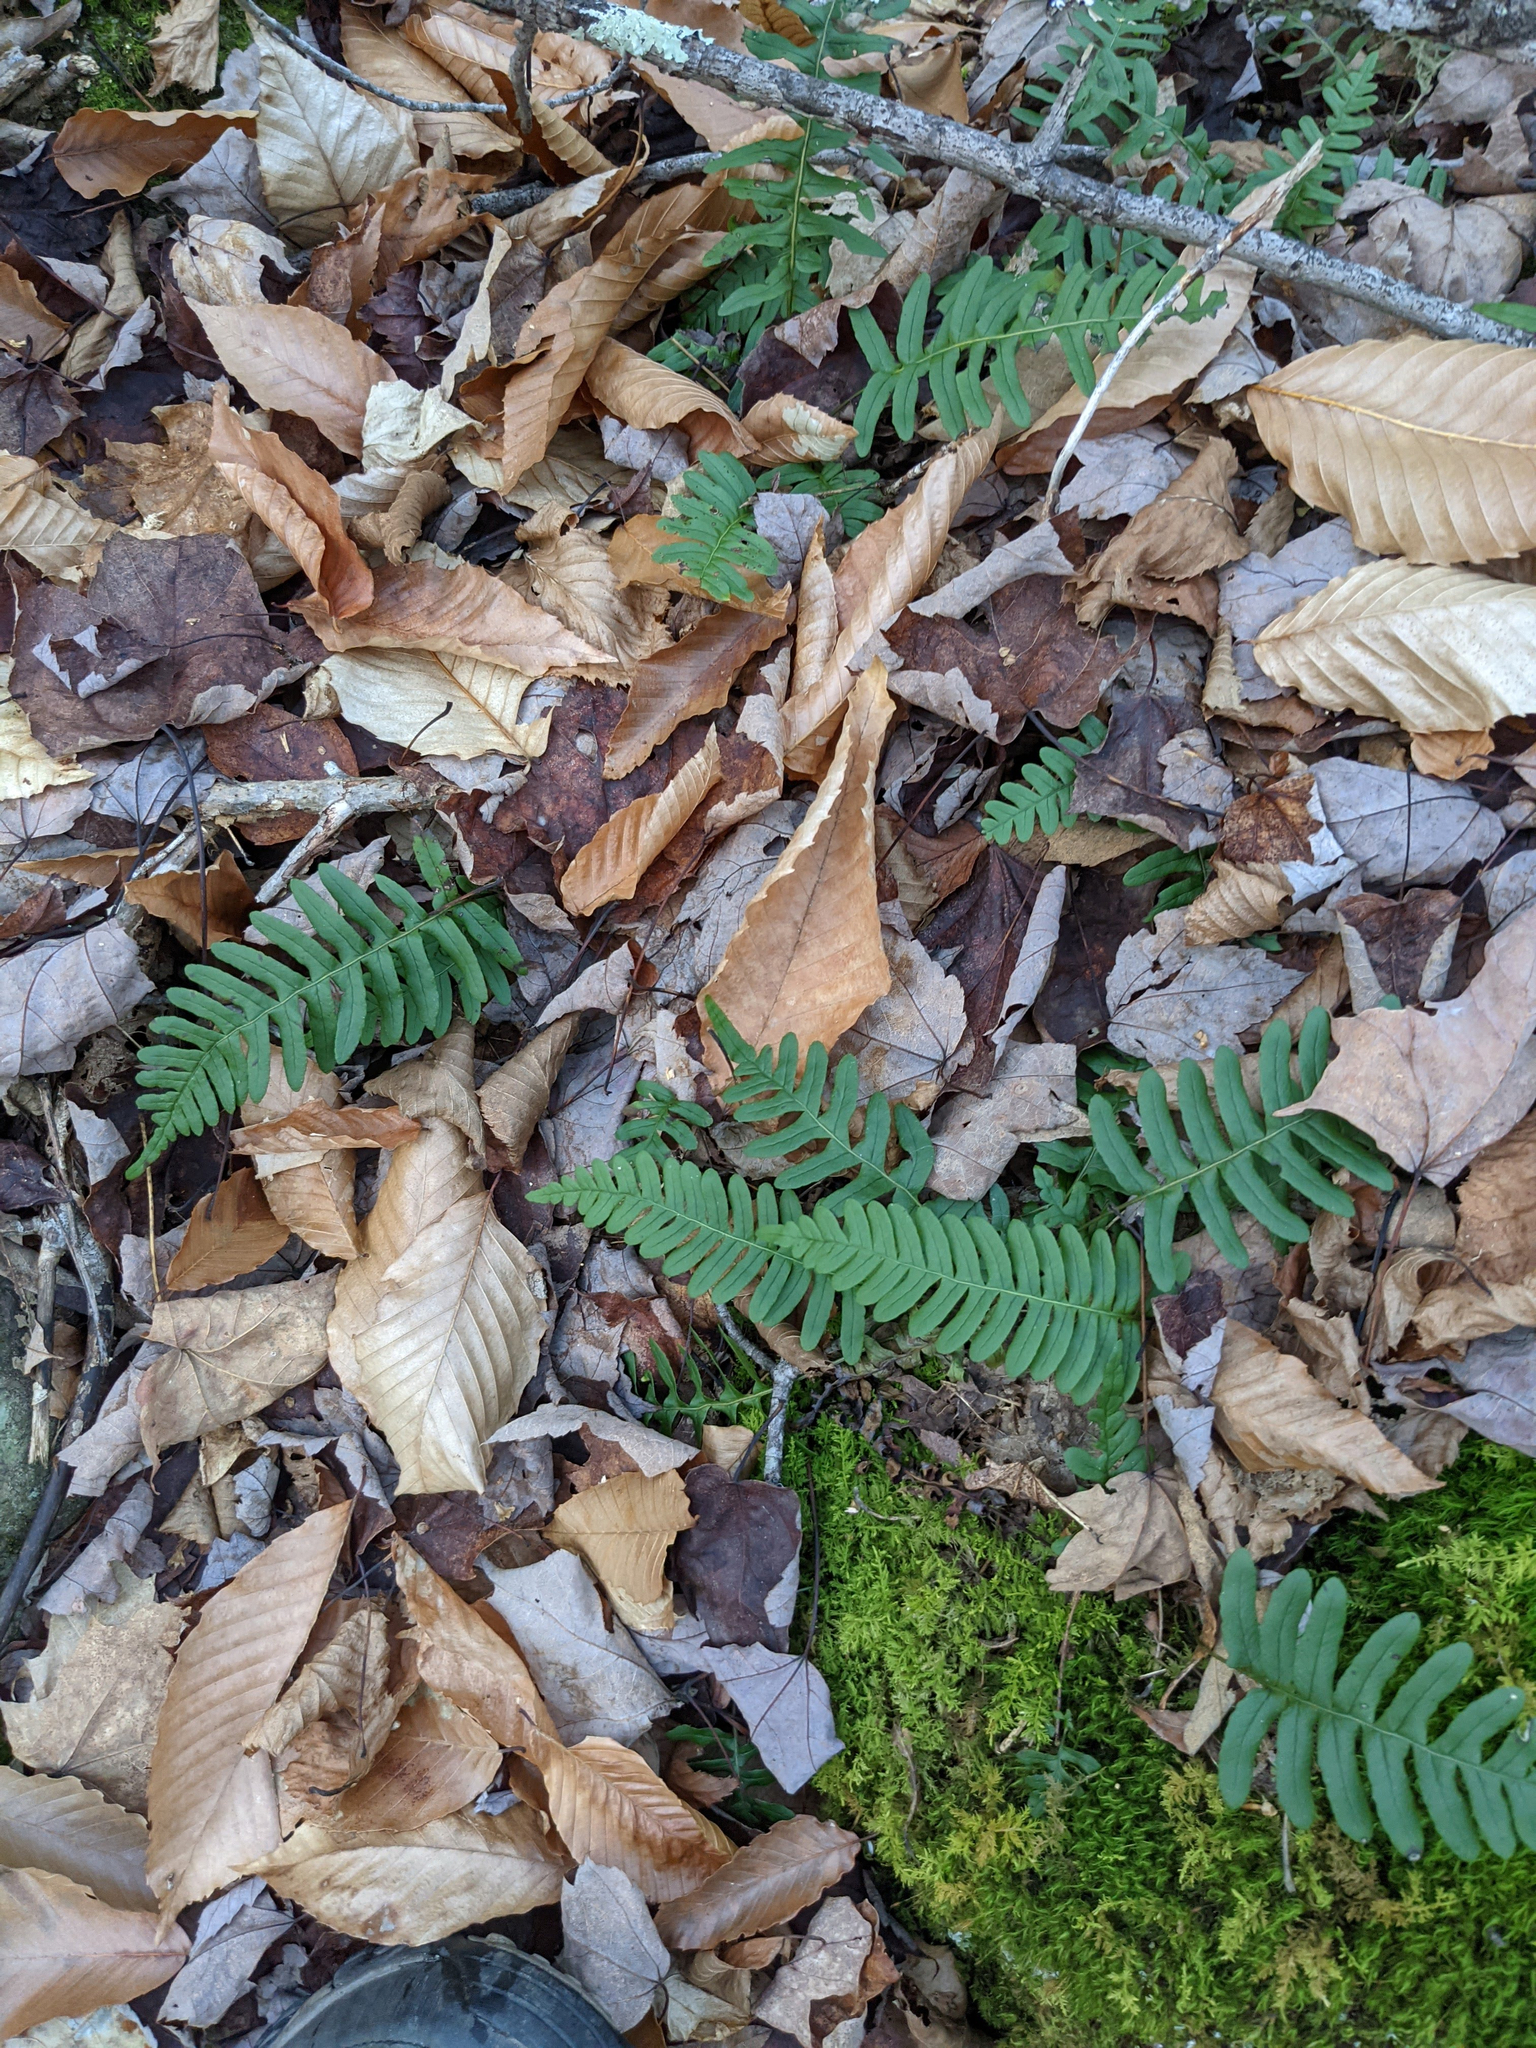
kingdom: Plantae
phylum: Tracheophyta
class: Magnoliopsida
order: Fagales
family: Fagaceae
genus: Fagus
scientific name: Fagus grandifolia
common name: American beech
